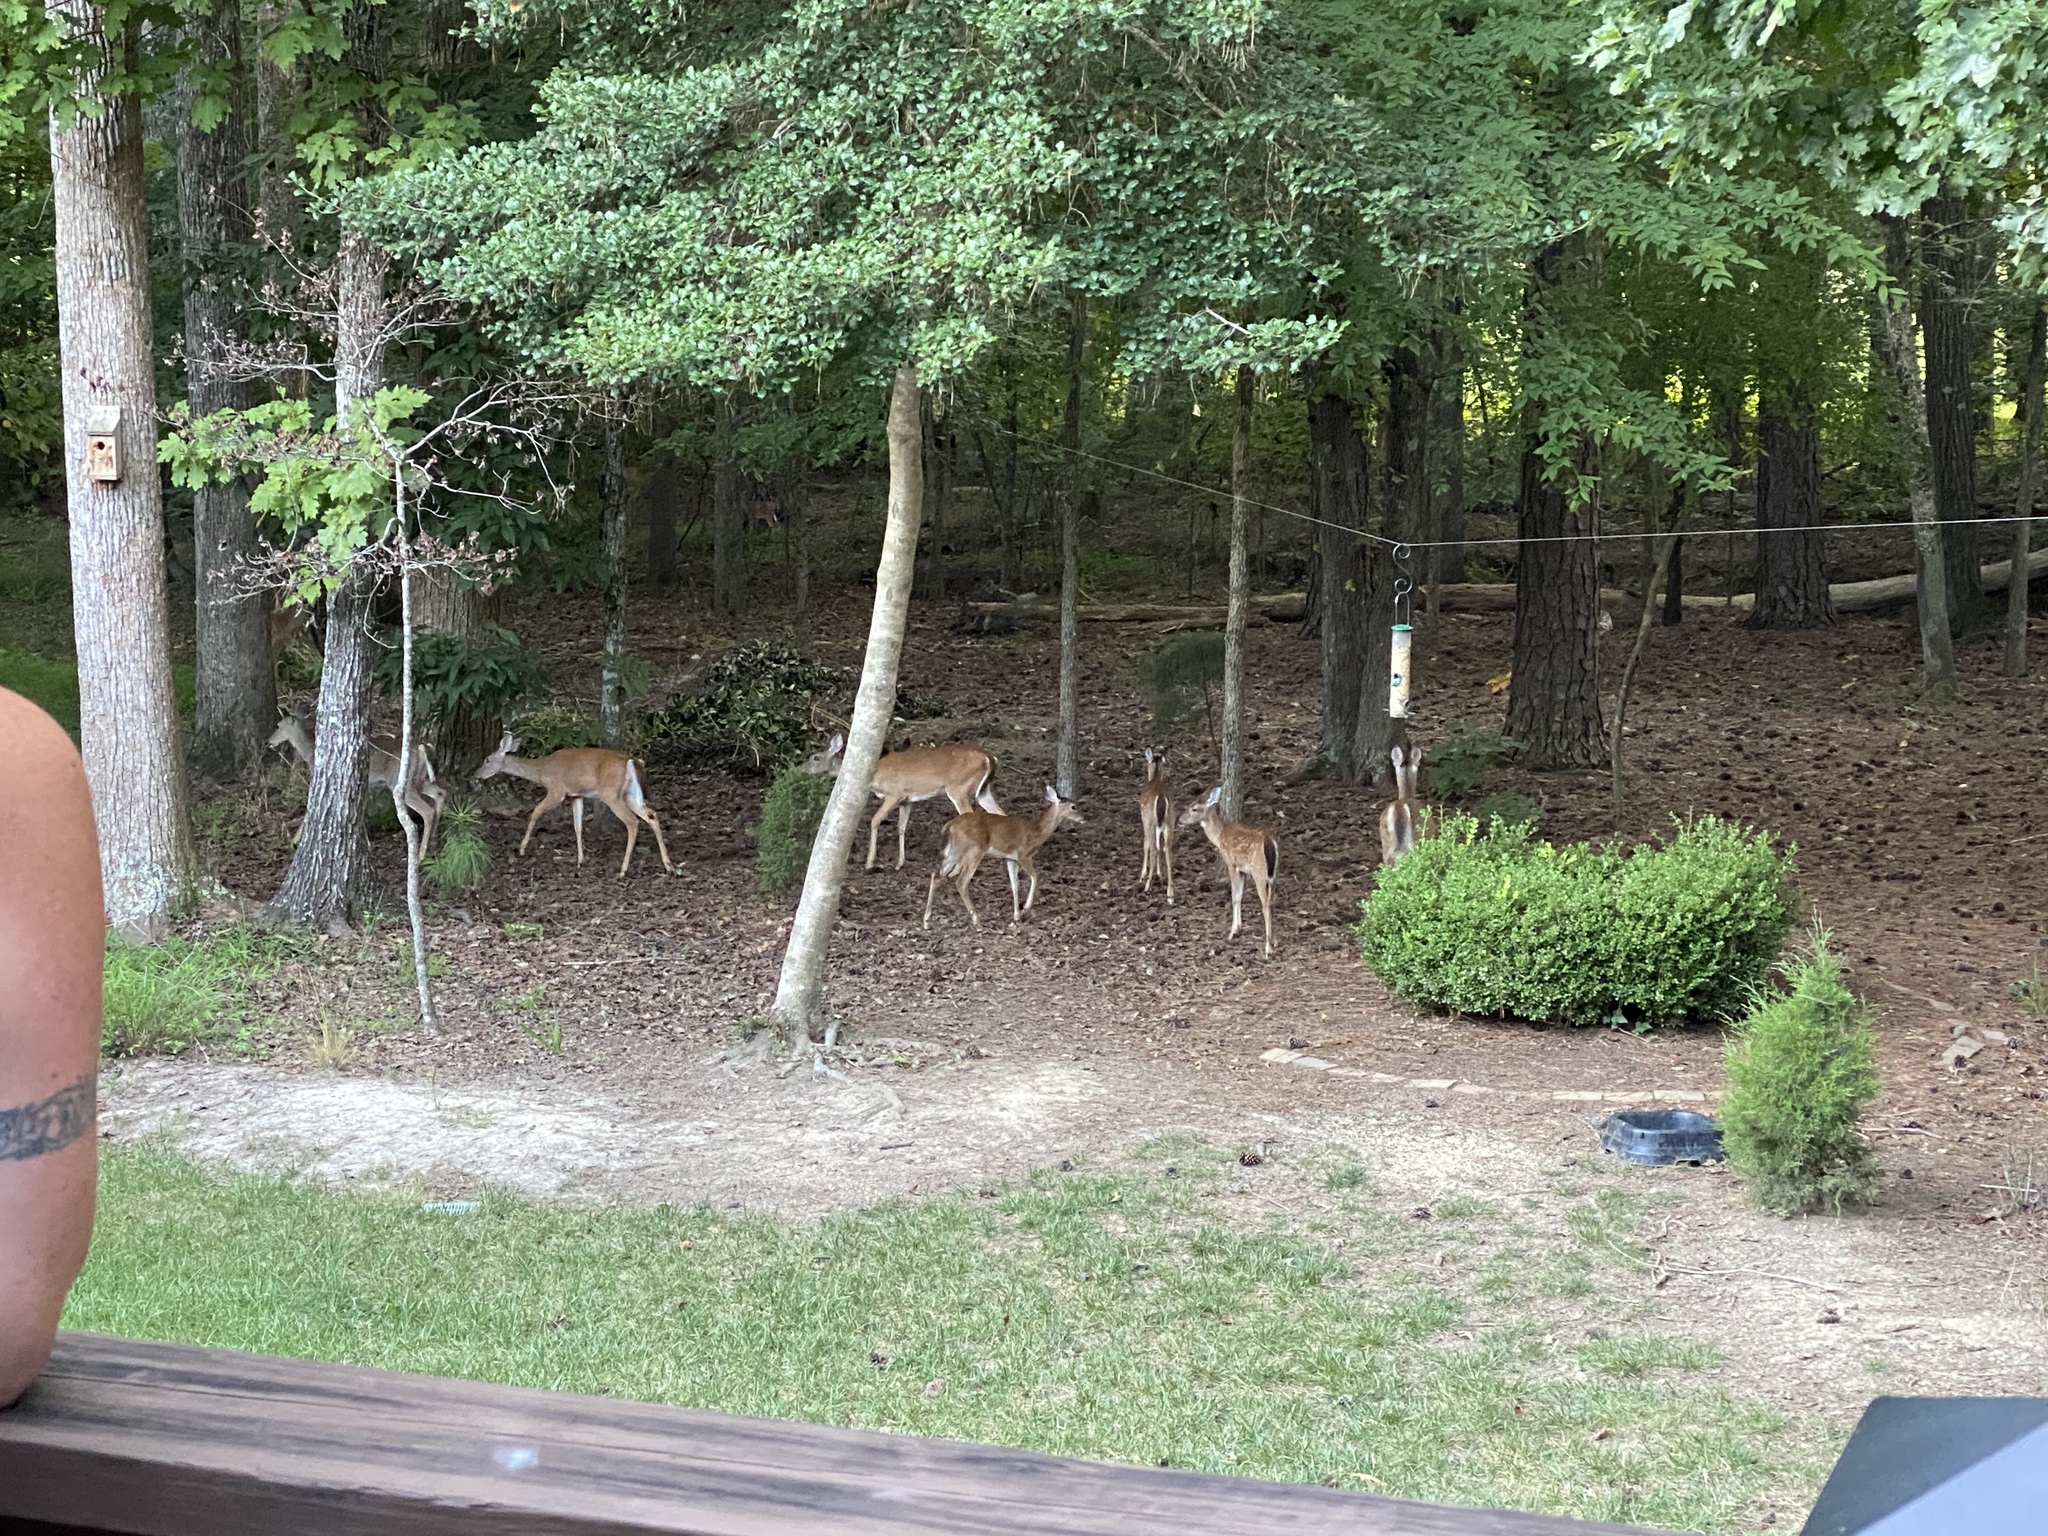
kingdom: Animalia
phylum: Chordata
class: Mammalia
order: Artiodactyla
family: Cervidae
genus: Odocoileus
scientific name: Odocoileus virginianus
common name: White-tailed deer
